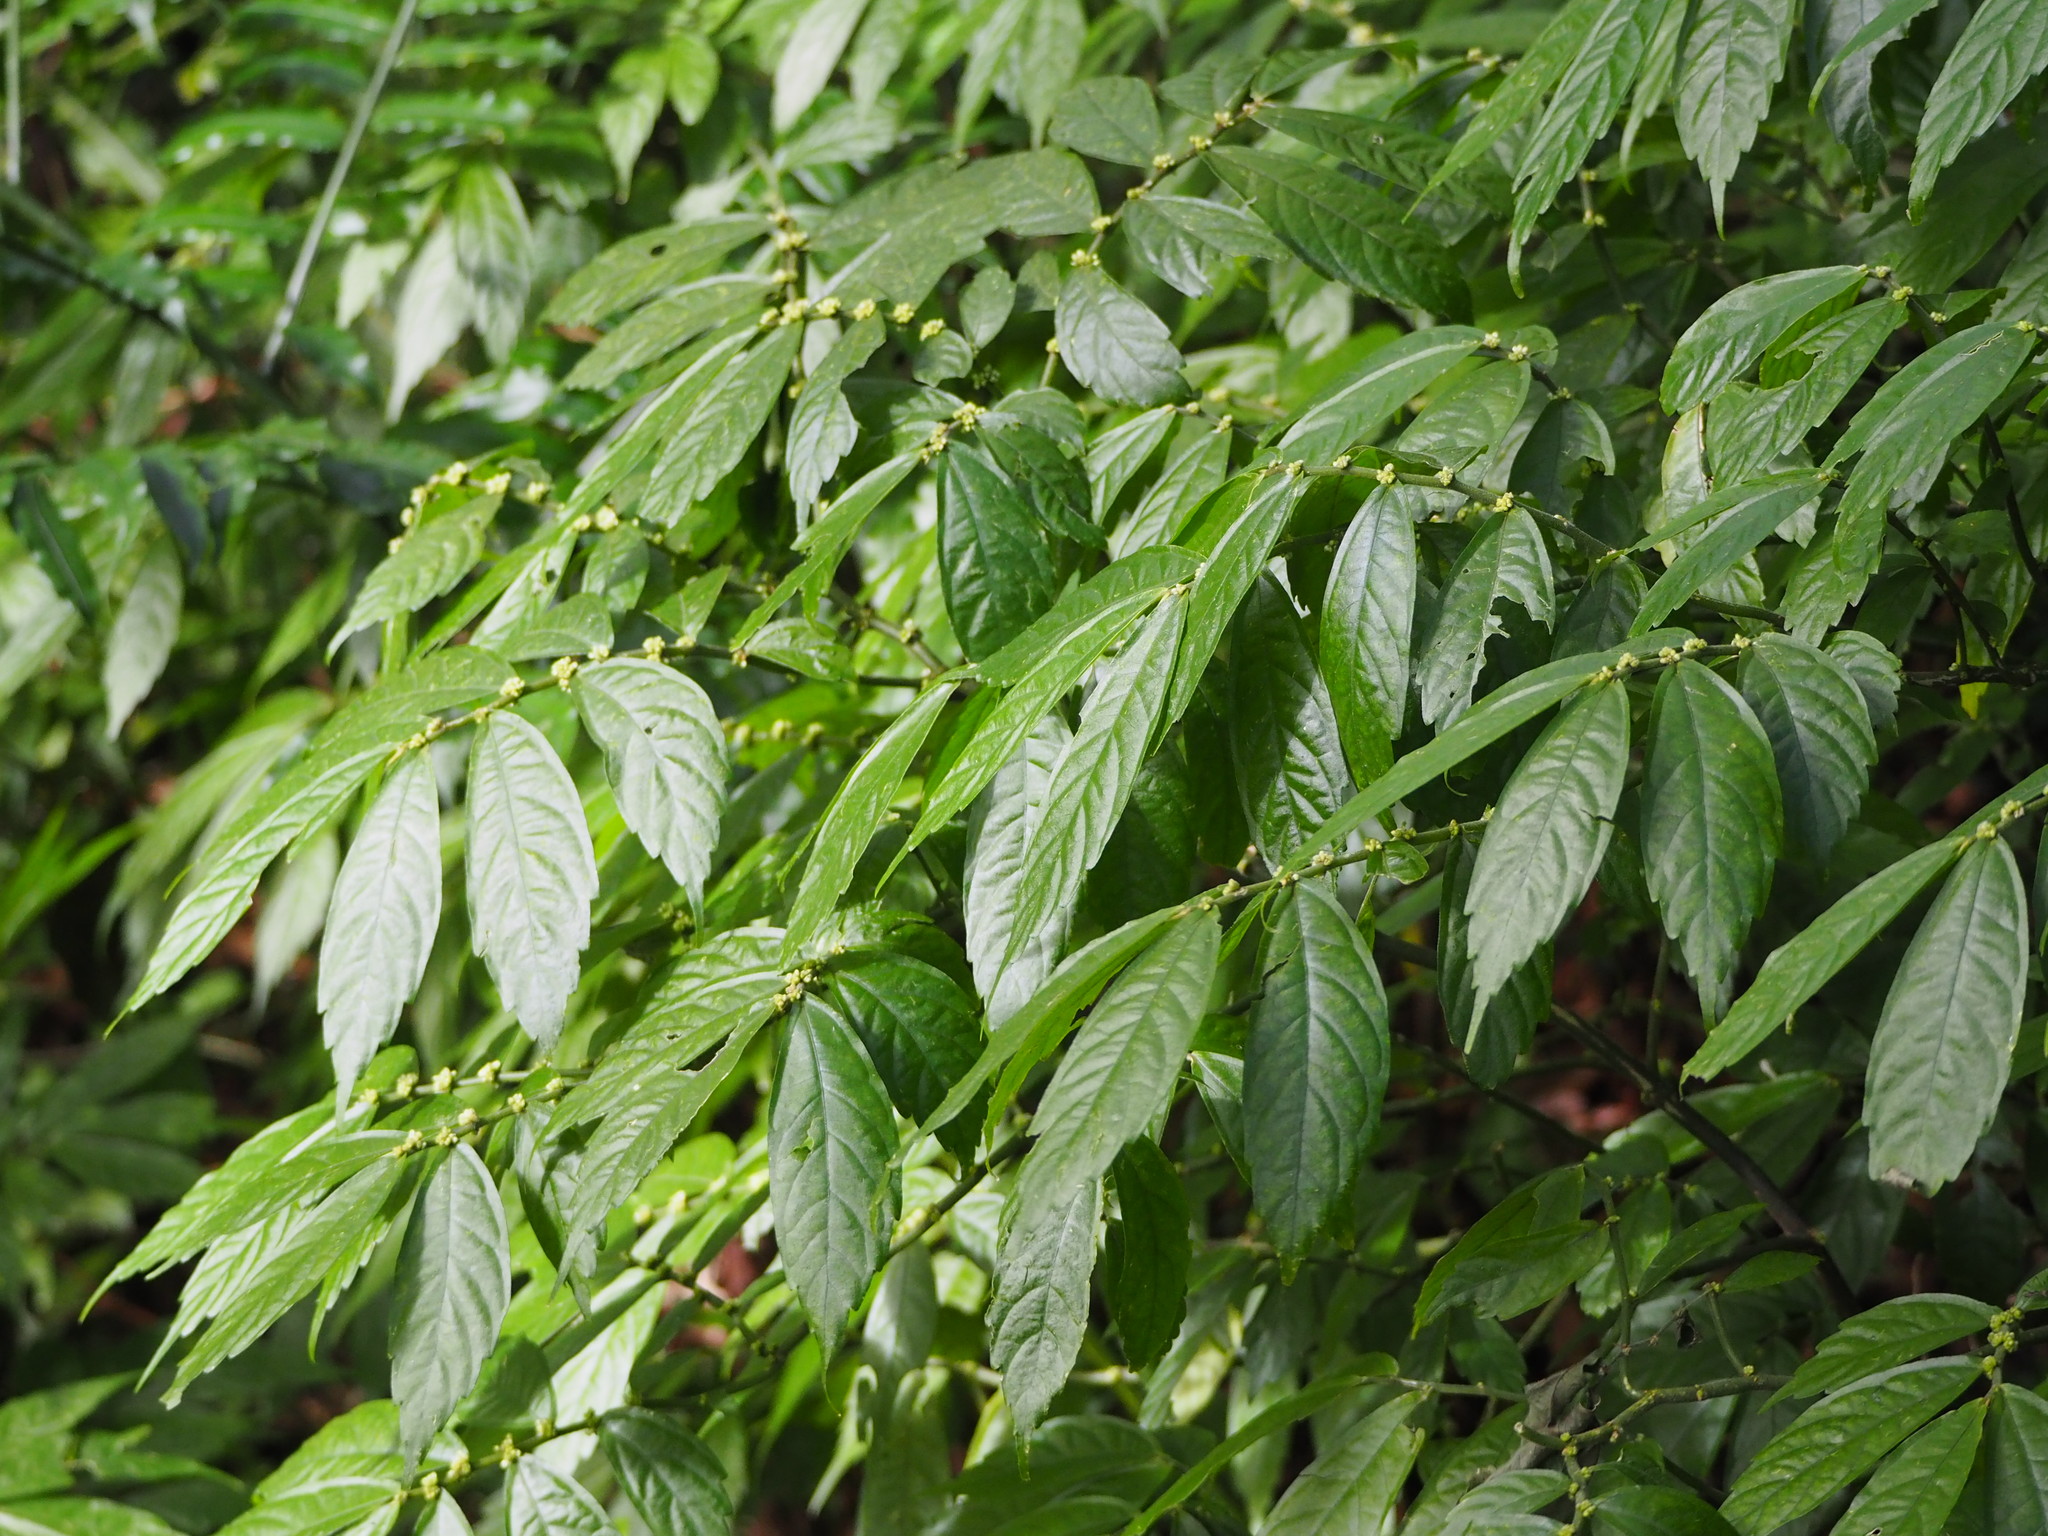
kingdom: Plantae
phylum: Tracheophyta
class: Magnoliopsida
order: Rosales
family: Urticaceae
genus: Elatostema
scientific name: Elatostema lineolatum
